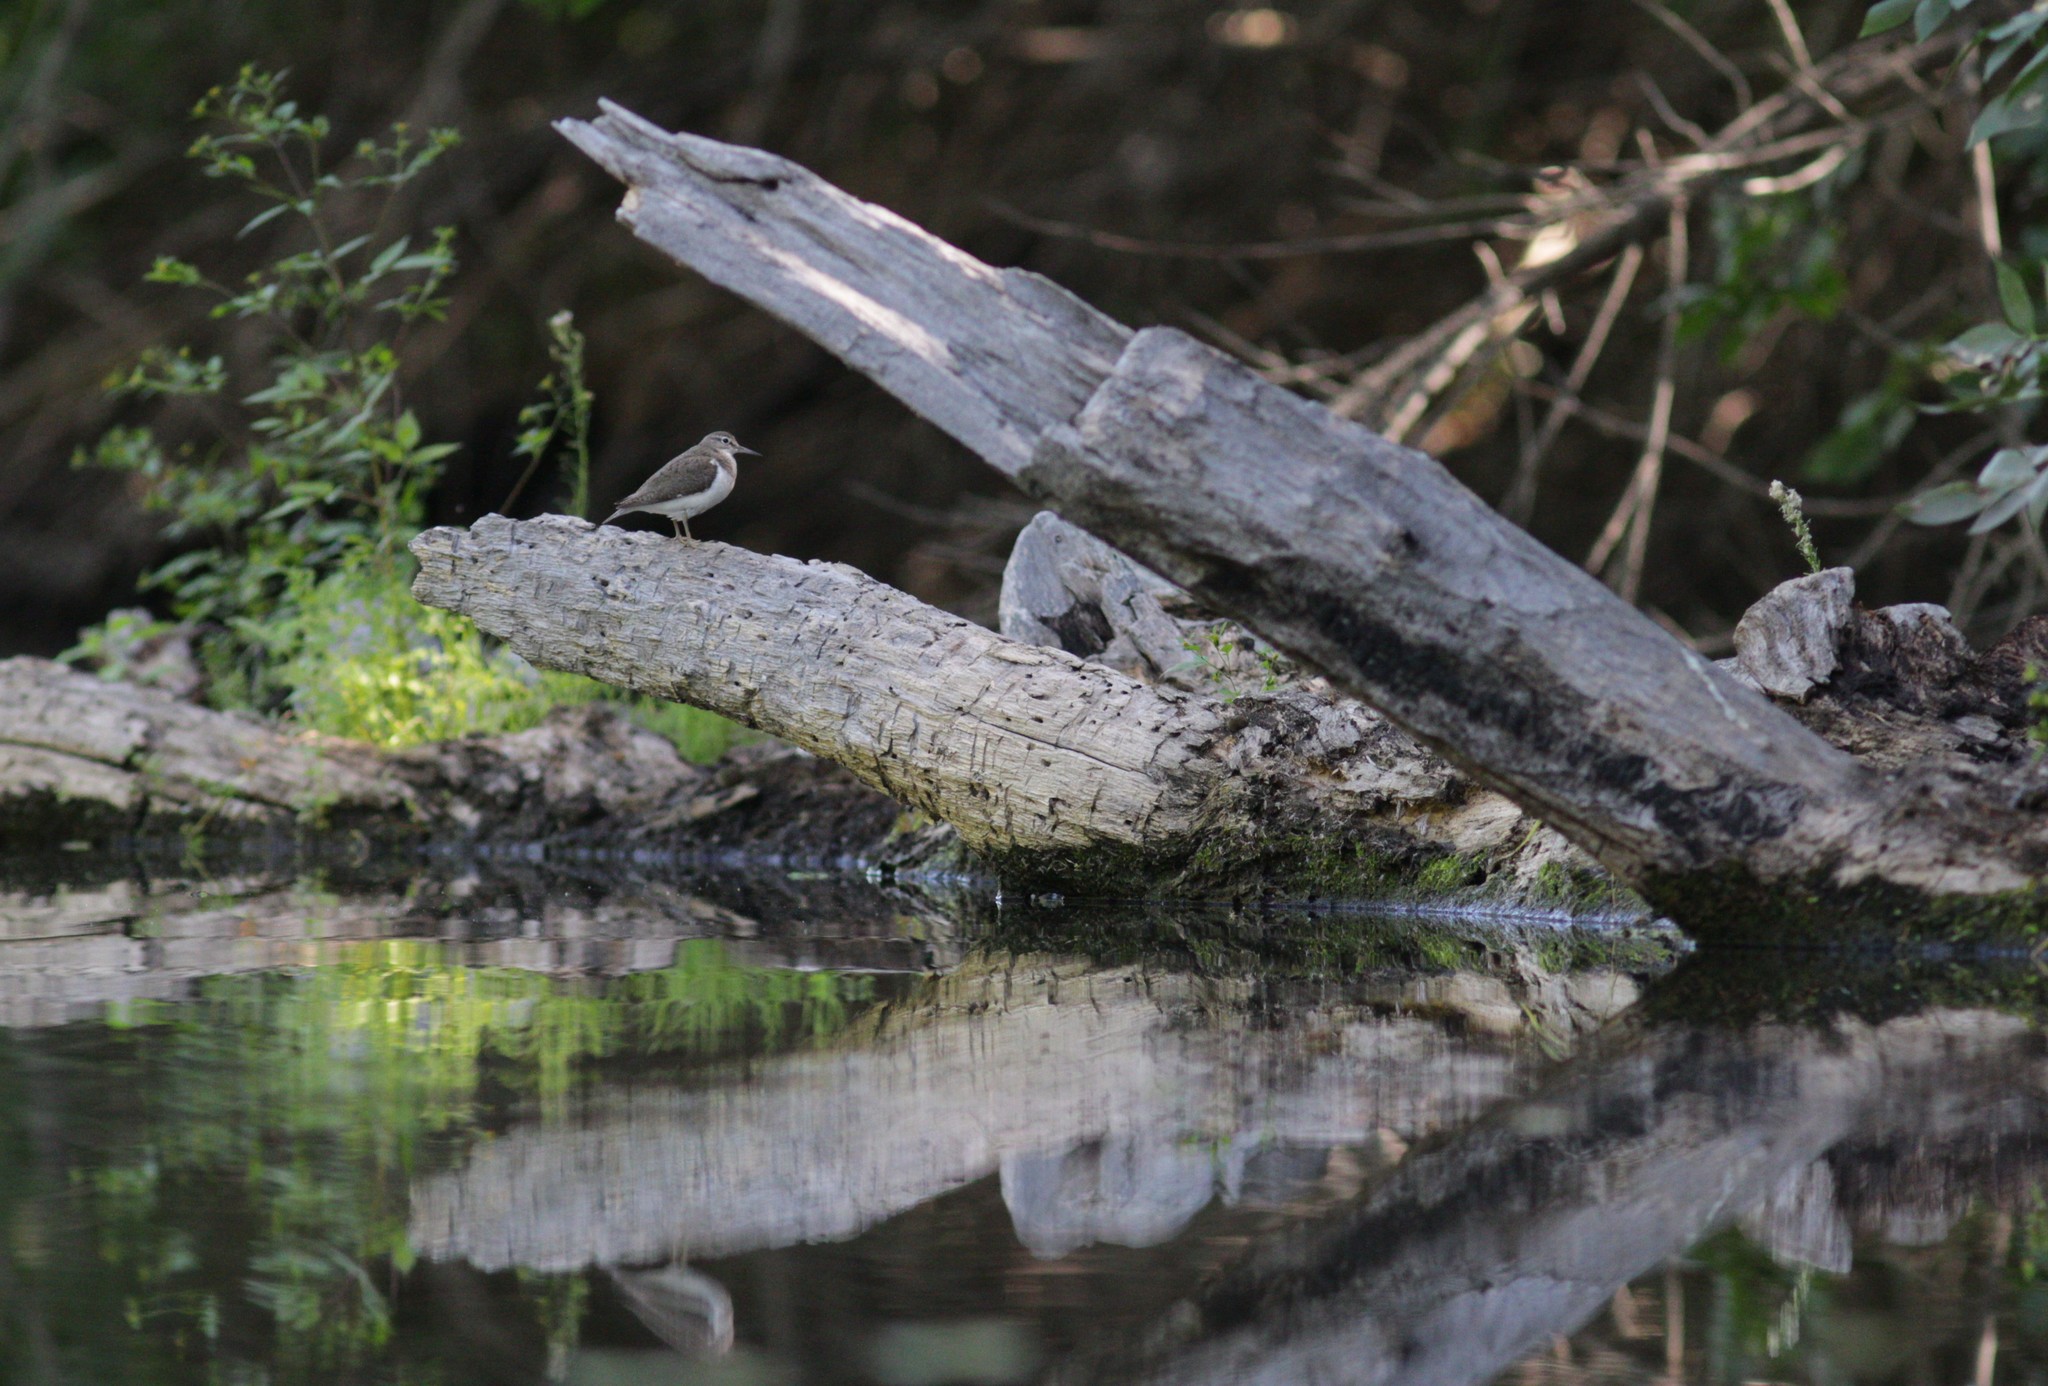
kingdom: Animalia
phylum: Chordata
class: Aves
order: Charadriiformes
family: Scolopacidae
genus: Actitis
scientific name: Actitis hypoleucos
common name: Common sandpiper
